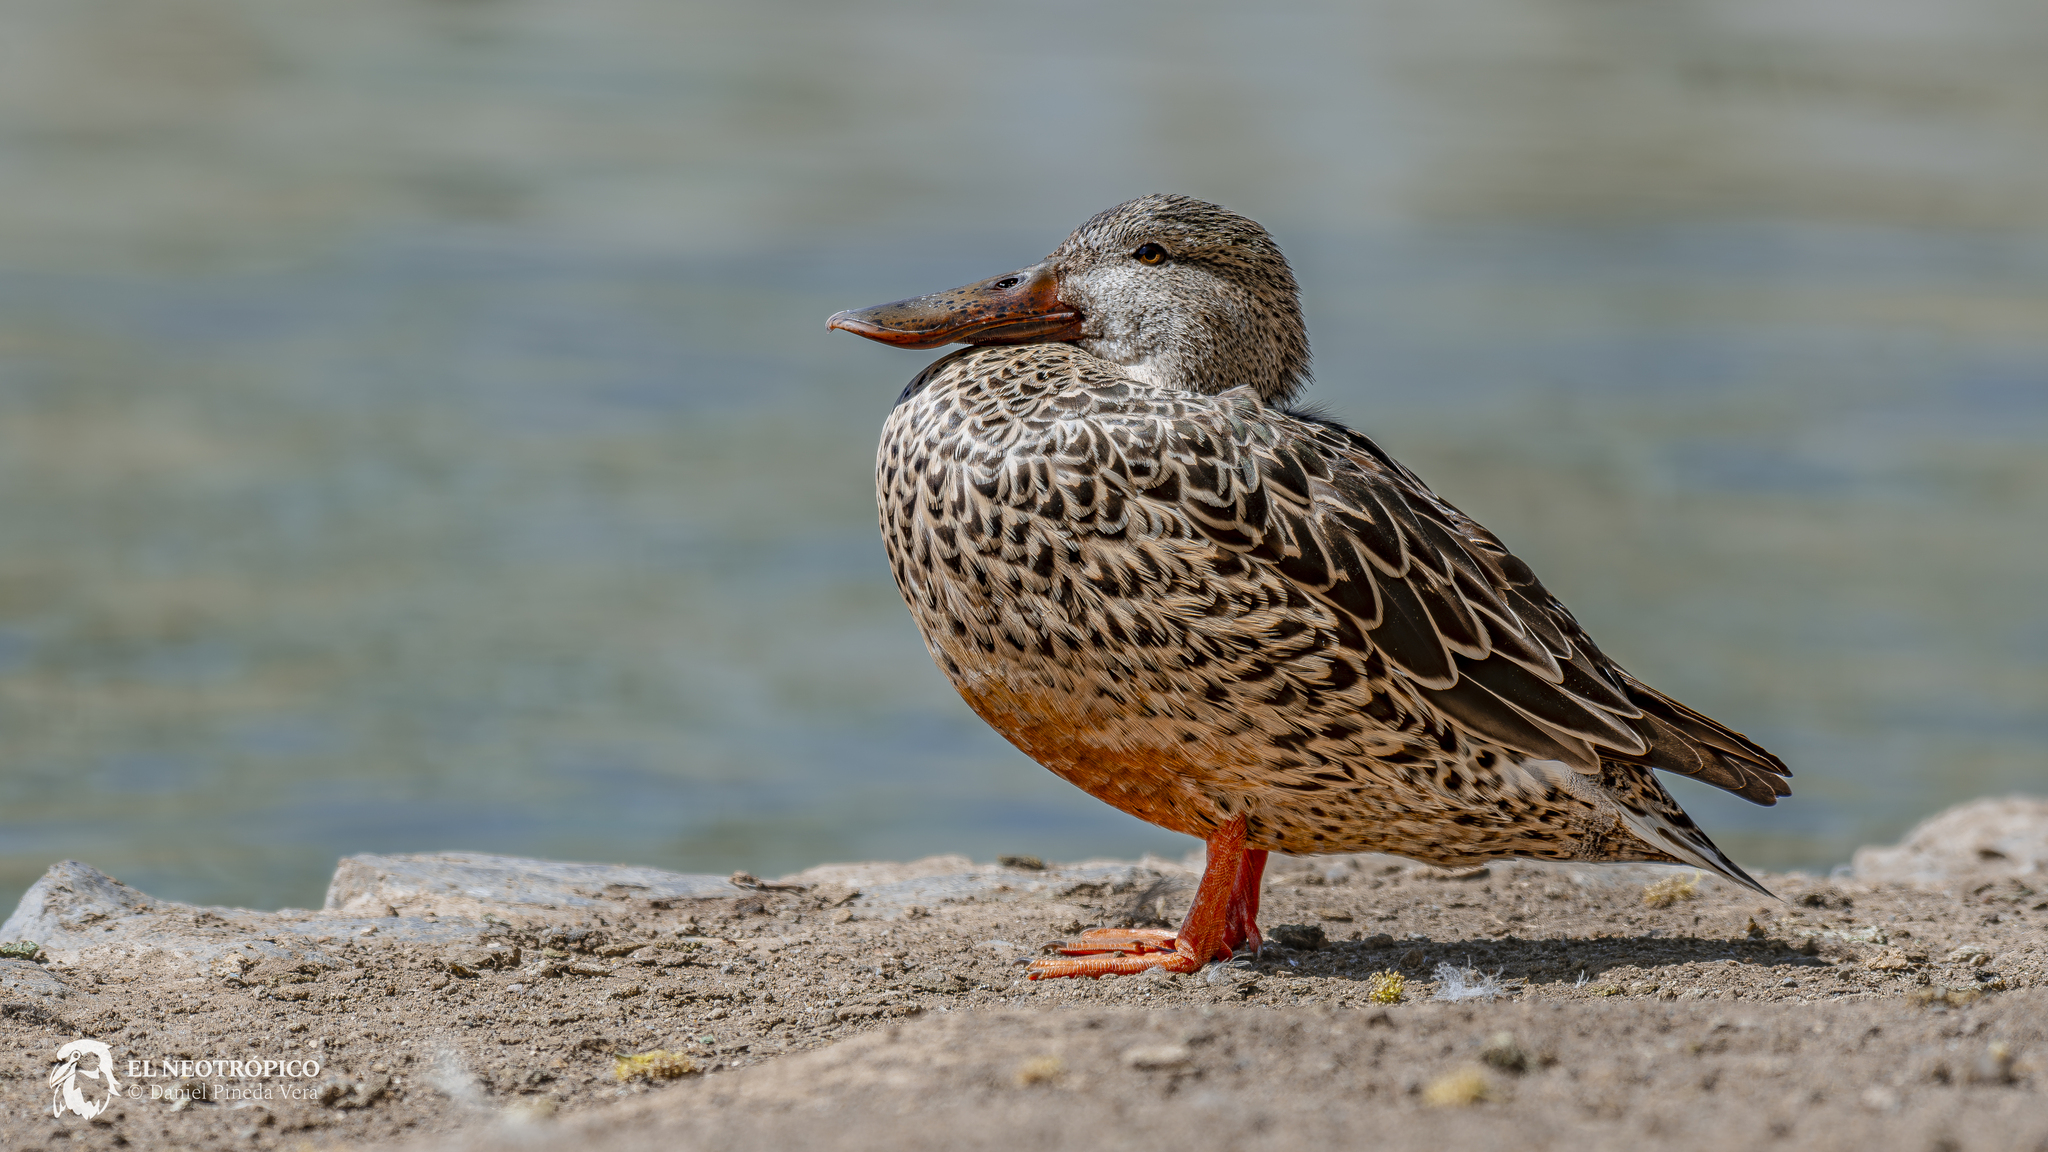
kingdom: Animalia
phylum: Chordata
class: Aves
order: Anseriformes
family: Anatidae
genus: Spatula
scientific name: Spatula clypeata
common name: Northern shoveler
